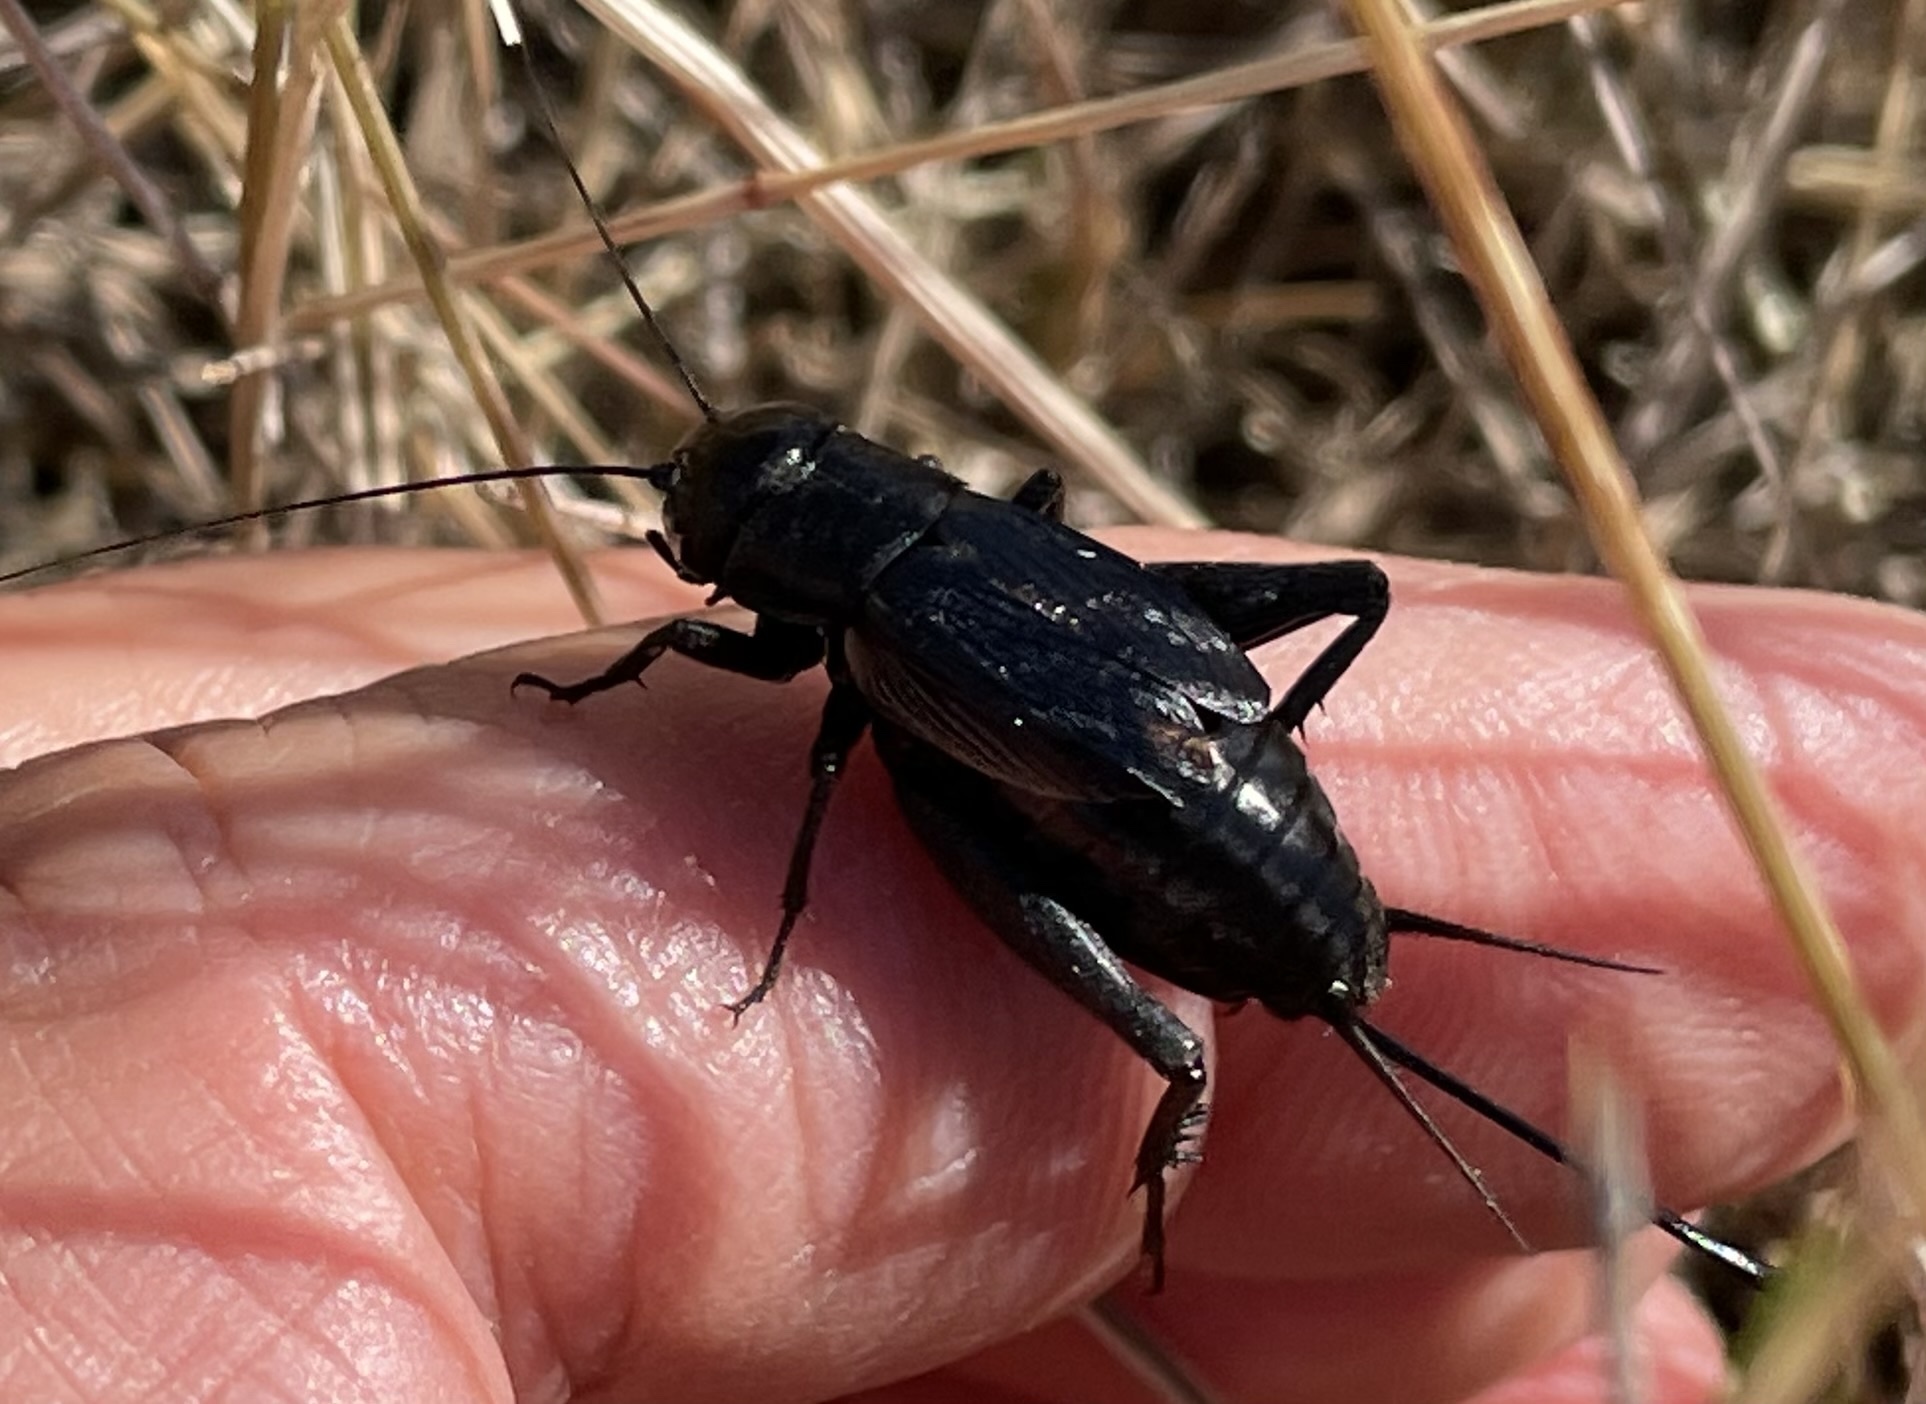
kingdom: Animalia
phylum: Arthropoda
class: Insecta
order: Orthoptera
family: Gryllidae
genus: Gryllus
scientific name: Gryllus pennsylvanicus
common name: Fall field cricket
